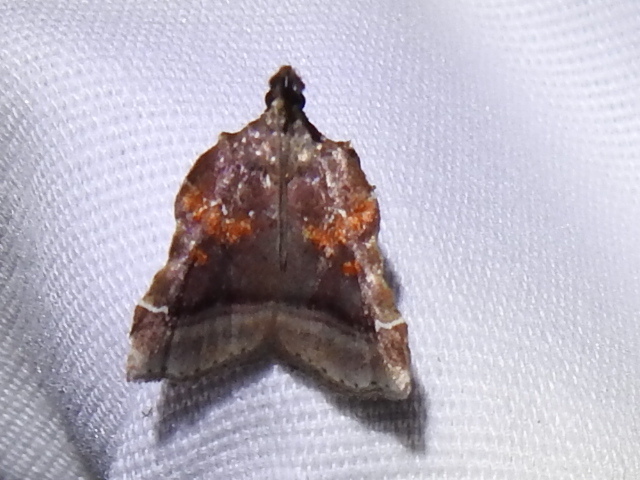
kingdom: Animalia
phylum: Arthropoda
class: Insecta
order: Lepidoptera
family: Pyralidae
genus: Clydonopteron
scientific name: Clydonopteron sacculana
